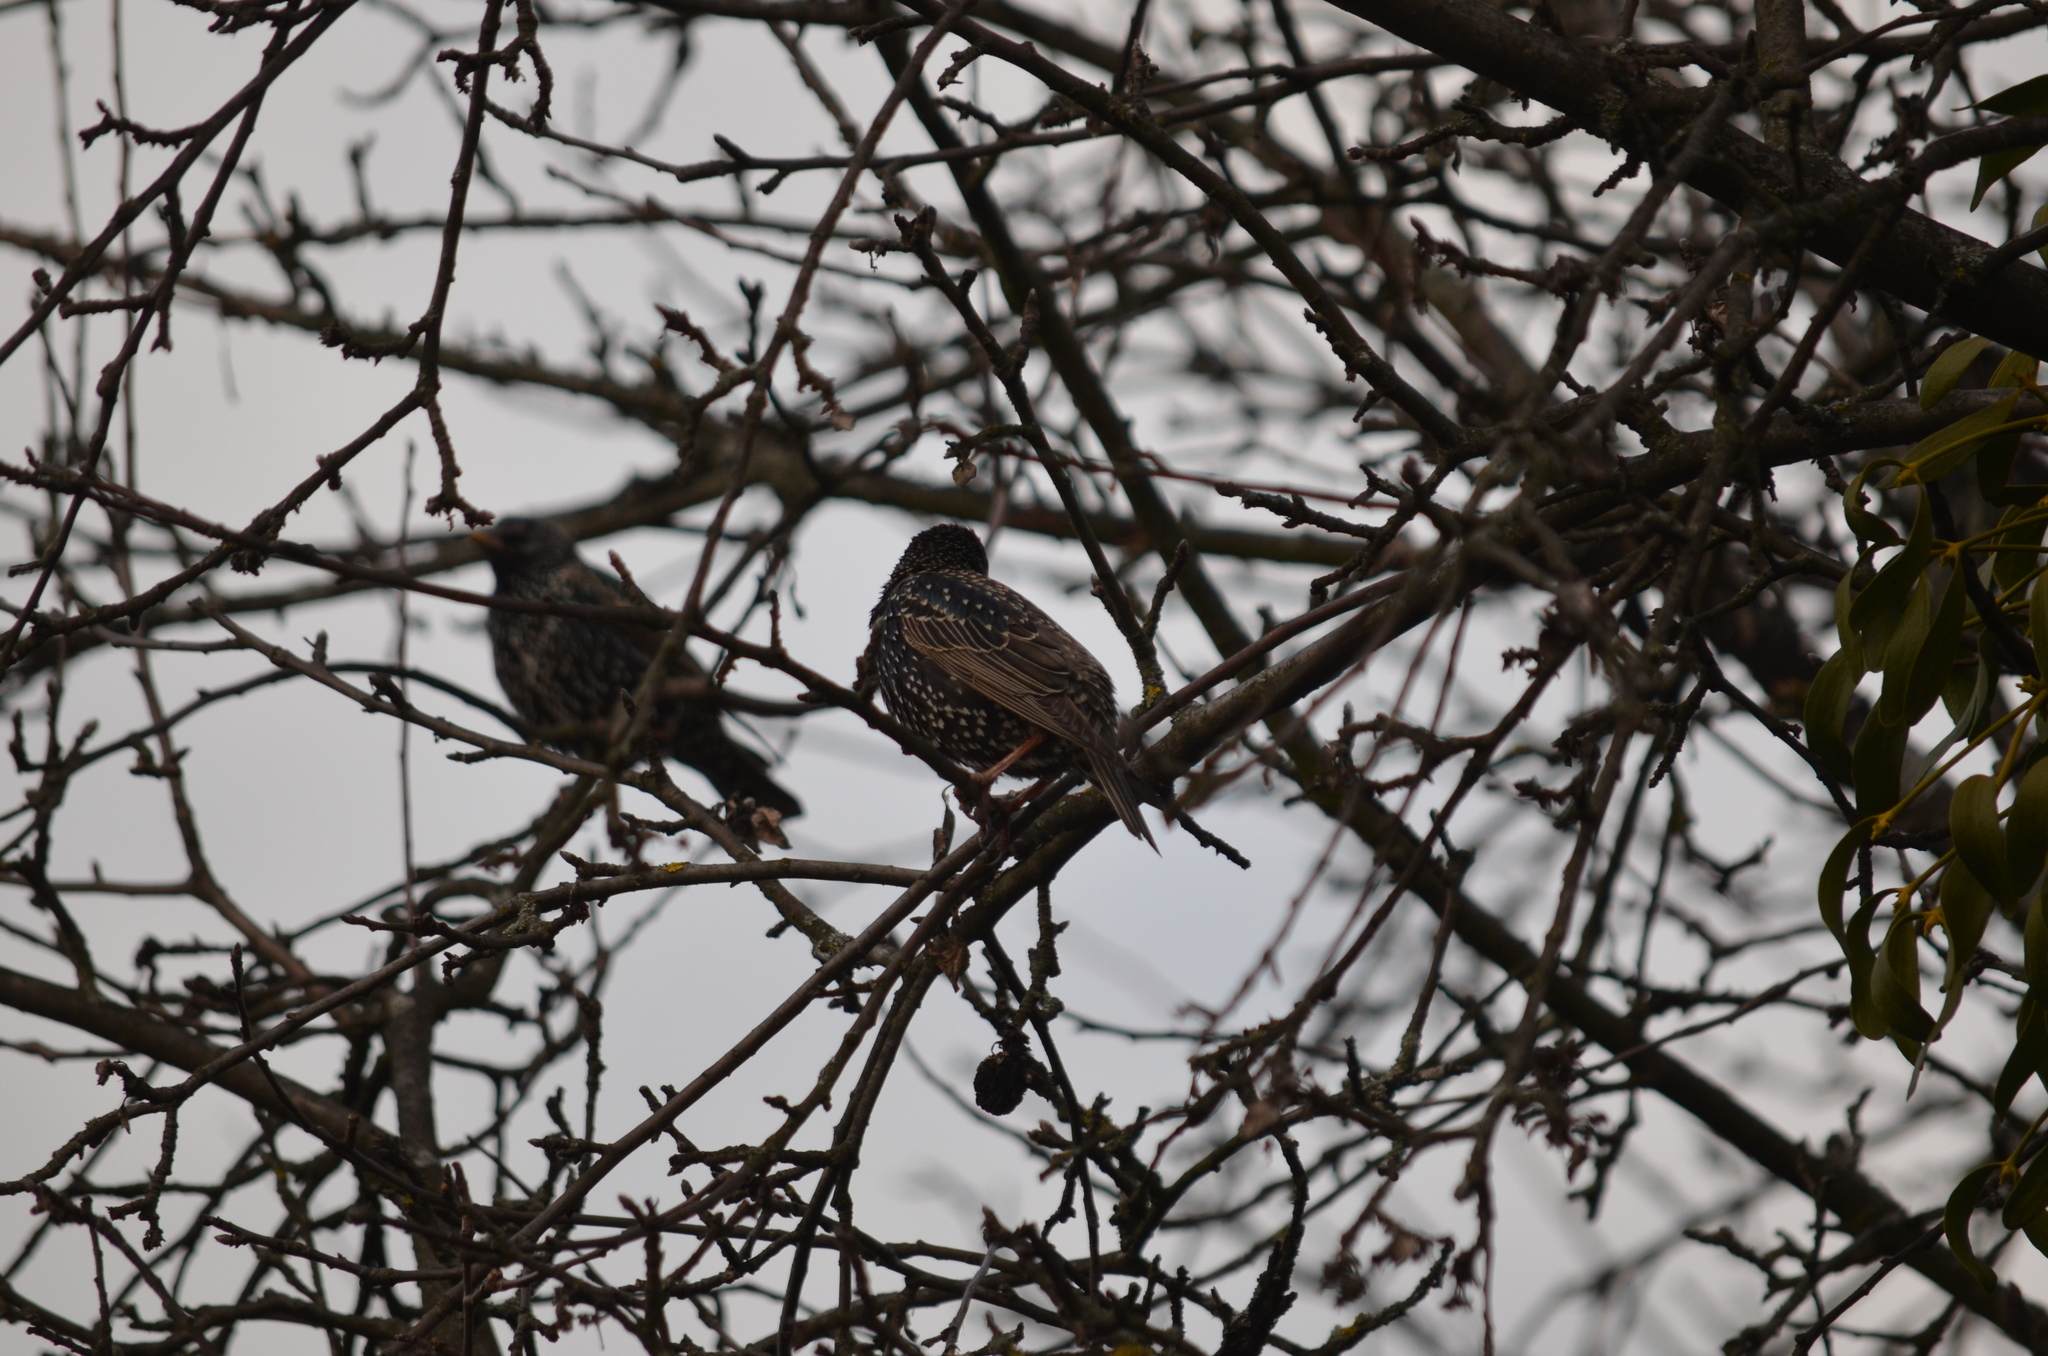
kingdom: Animalia
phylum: Chordata
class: Aves
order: Passeriformes
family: Sturnidae
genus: Sturnus
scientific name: Sturnus vulgaris
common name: Common starling
